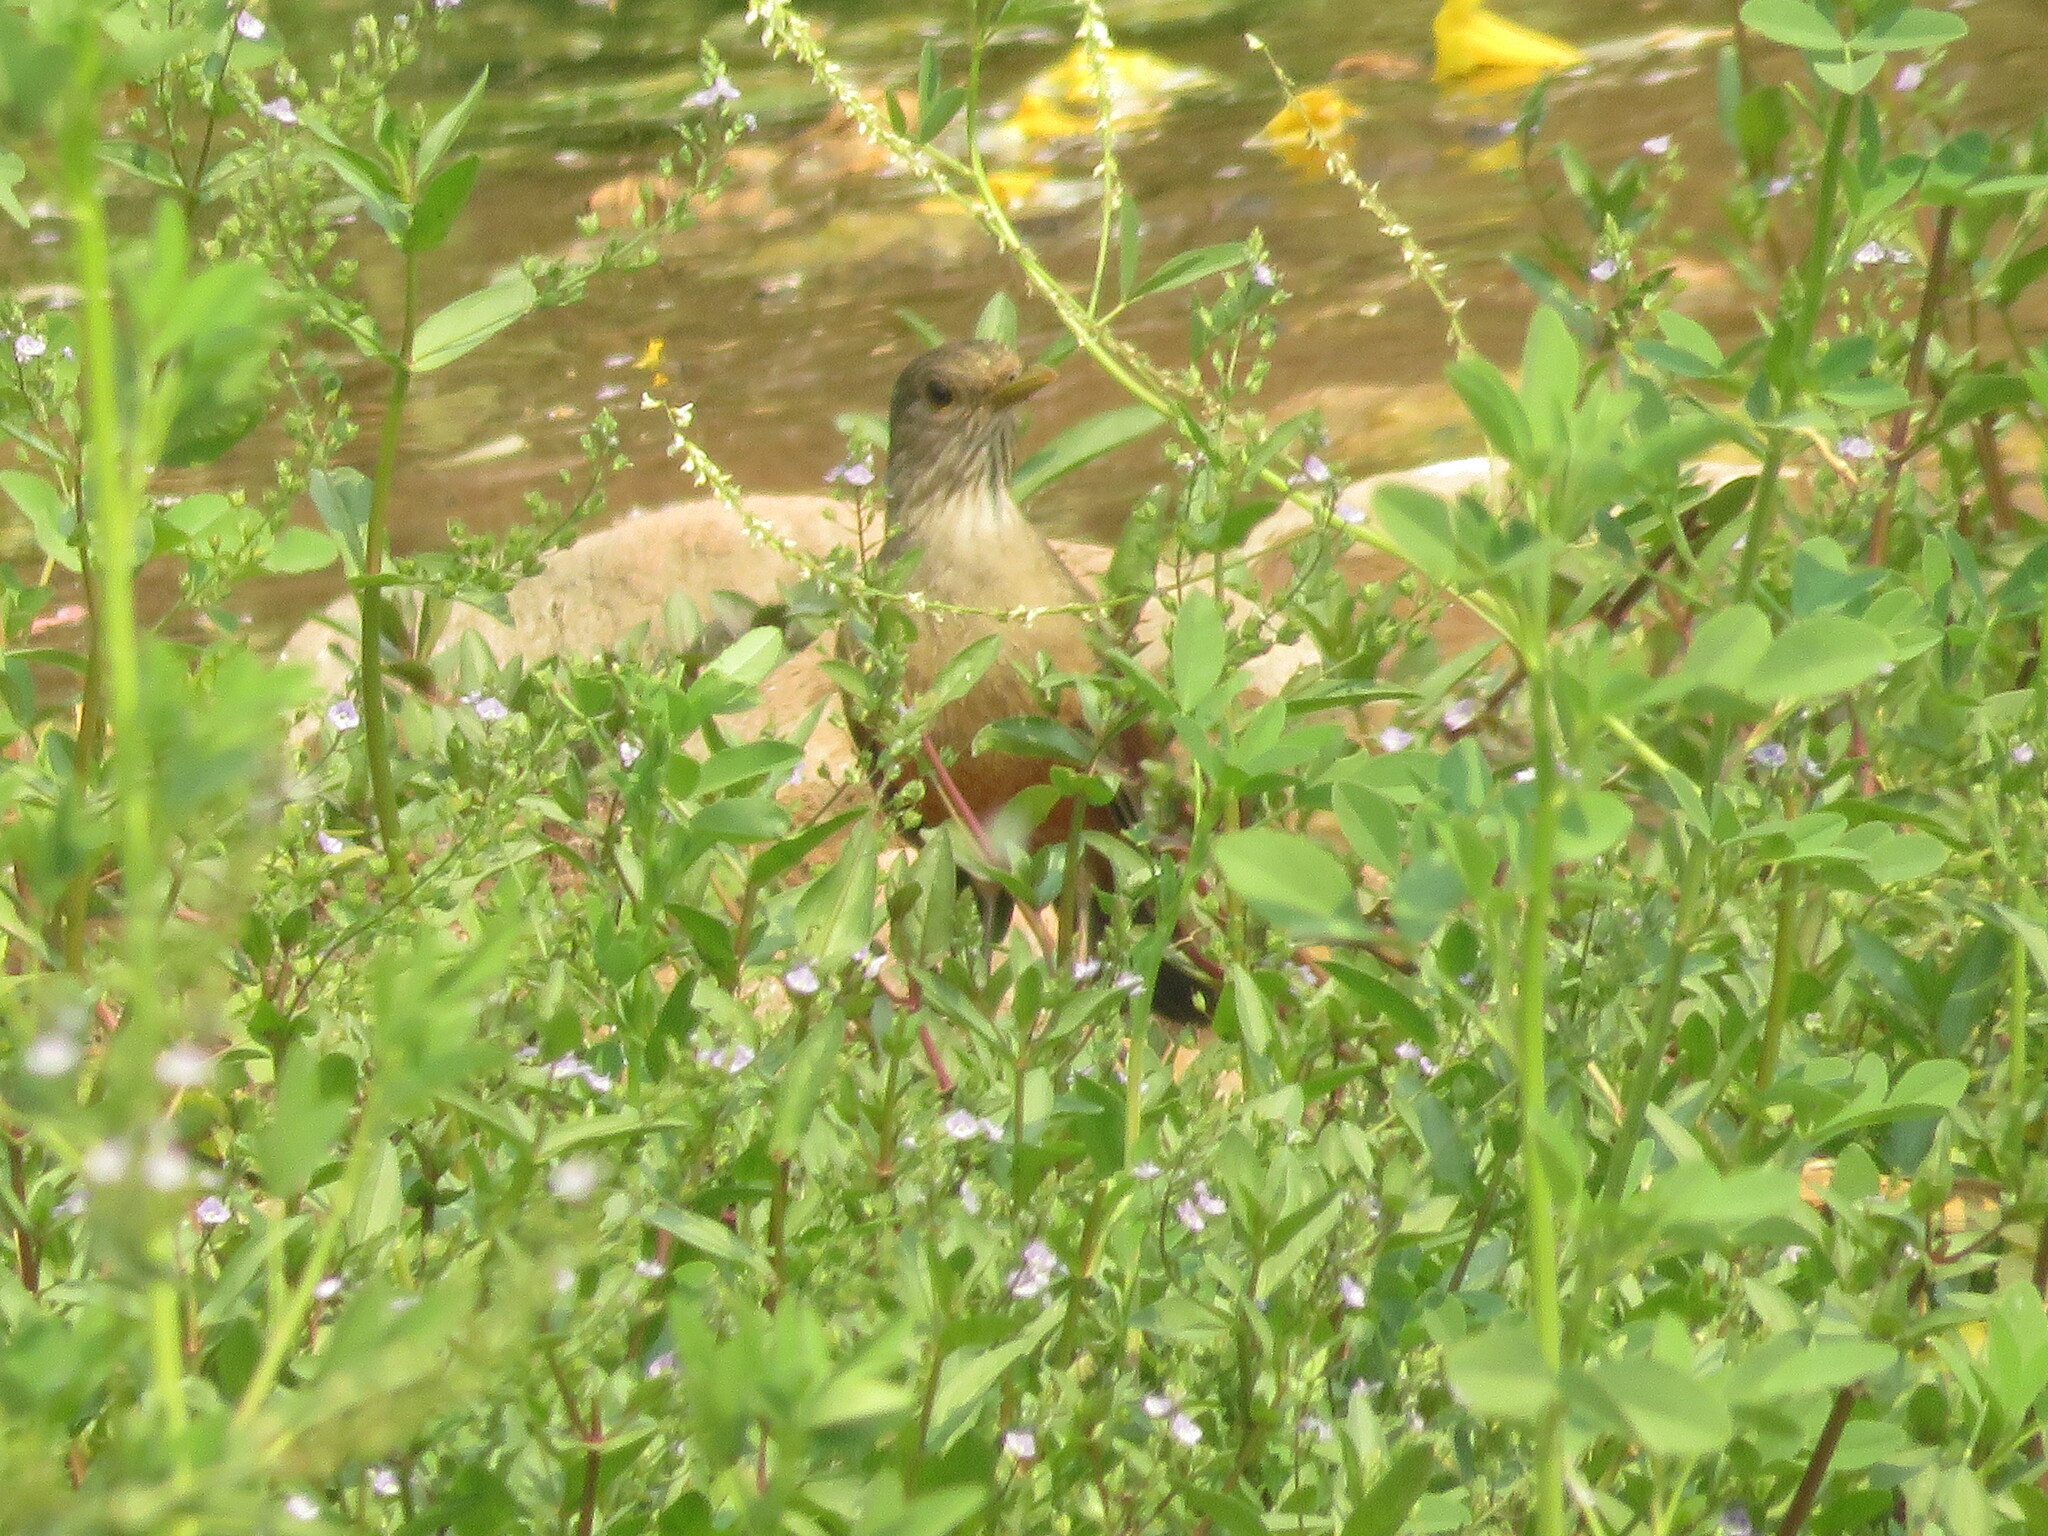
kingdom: Animalia
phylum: Chordata
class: Aves
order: Passeriformes
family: Turdidae
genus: Turdus
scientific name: Turdus rufiventris
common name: Rufous-bellied thrush
